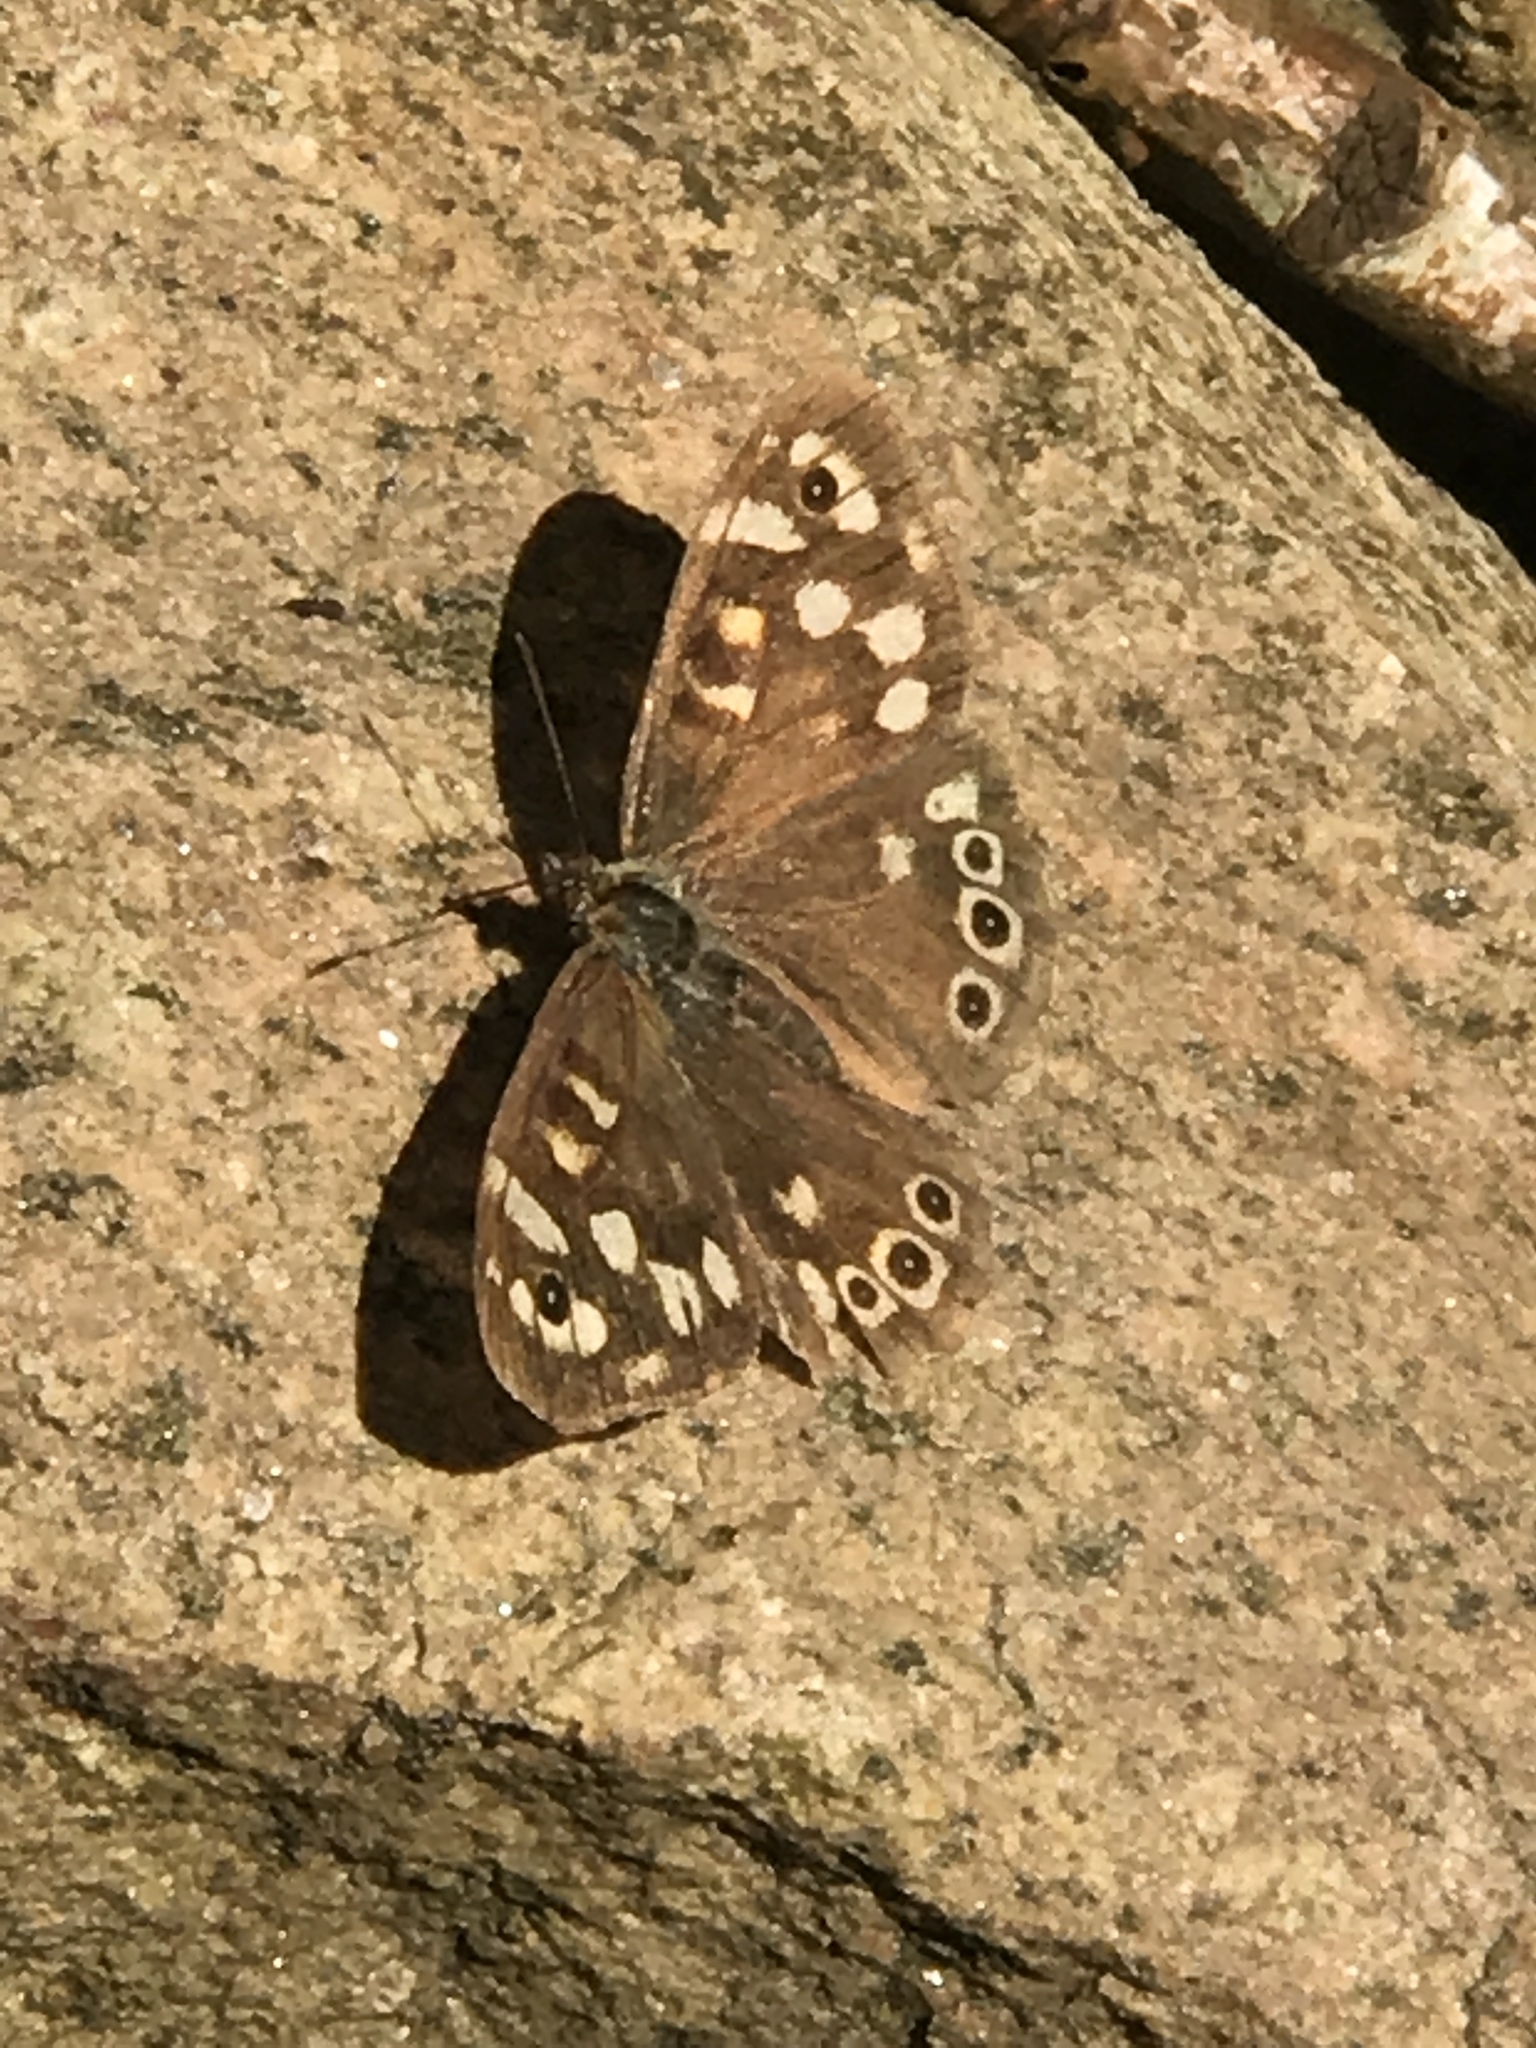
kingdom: Animalia
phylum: Arthropoda
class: Insecta
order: Lepidoptera
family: Nymphalidae
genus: Pararge
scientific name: Pararge aegeria
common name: Speckled wood
